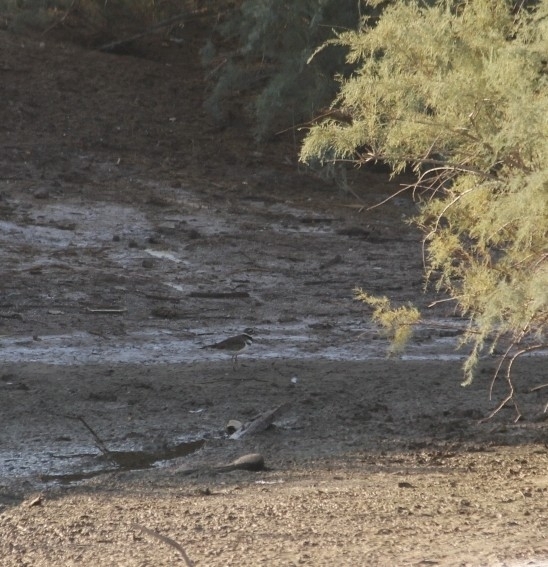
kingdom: Animalia
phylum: Chordata
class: Aves
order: Charadriiformes
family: Charadriidae
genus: Charadrius
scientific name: Charadrius vociferus
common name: Killdeer
